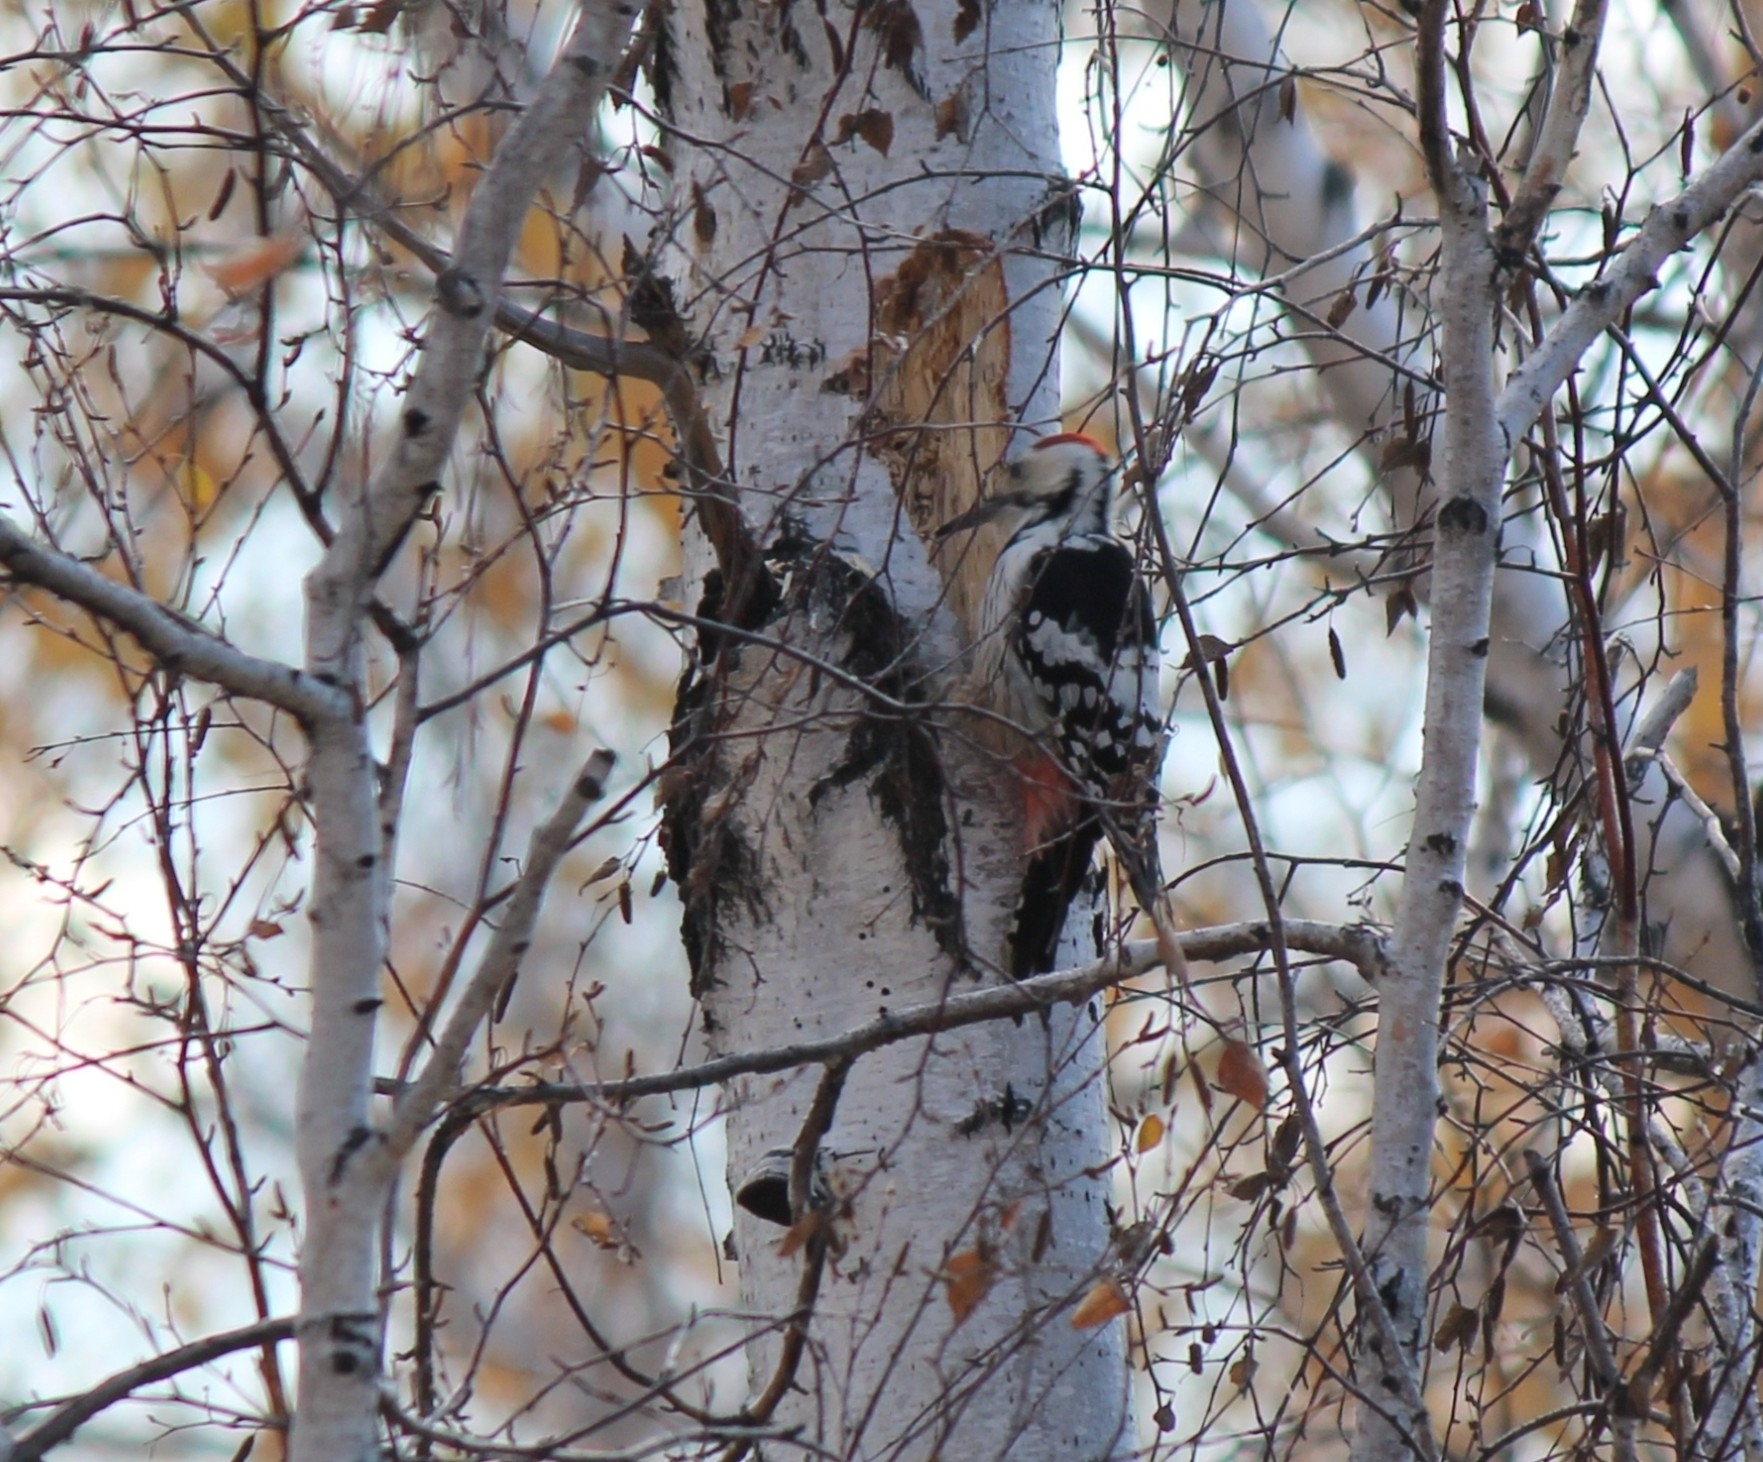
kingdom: Animalia
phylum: Chordata
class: Aves
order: Piciformes
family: Picidae
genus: Dendrocopos
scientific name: Dendrocopos leucotos
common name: White-backed woodpecker
